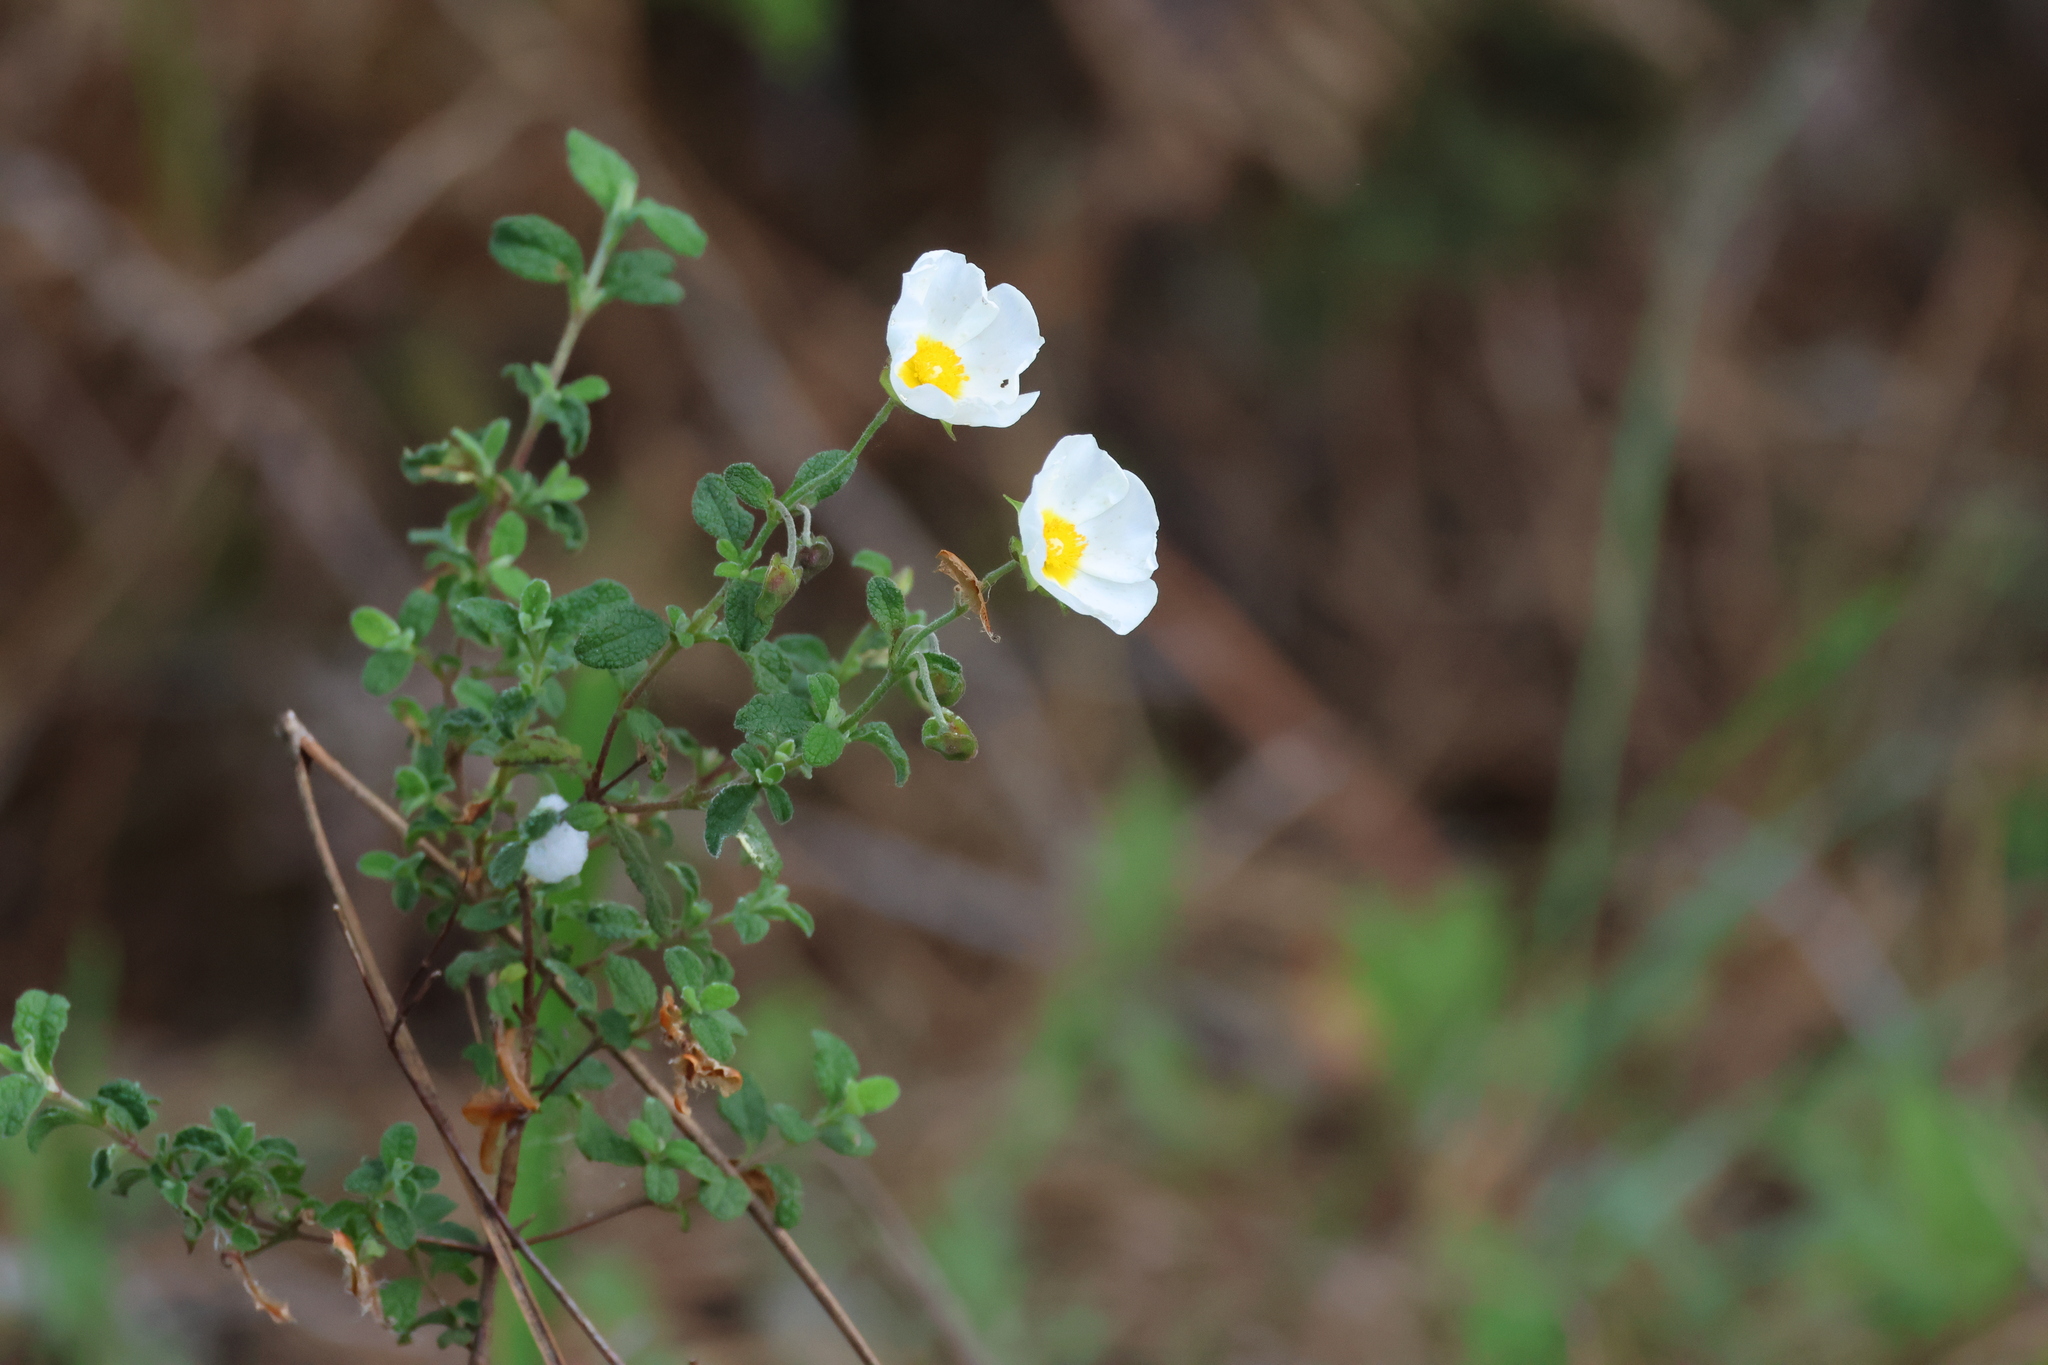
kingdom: Plantae
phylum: Tracheophyta
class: Magnoliopsida
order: Malvales
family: Cistaceae
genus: Cistus
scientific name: Cistus salviifolius
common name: Salvia cistus
